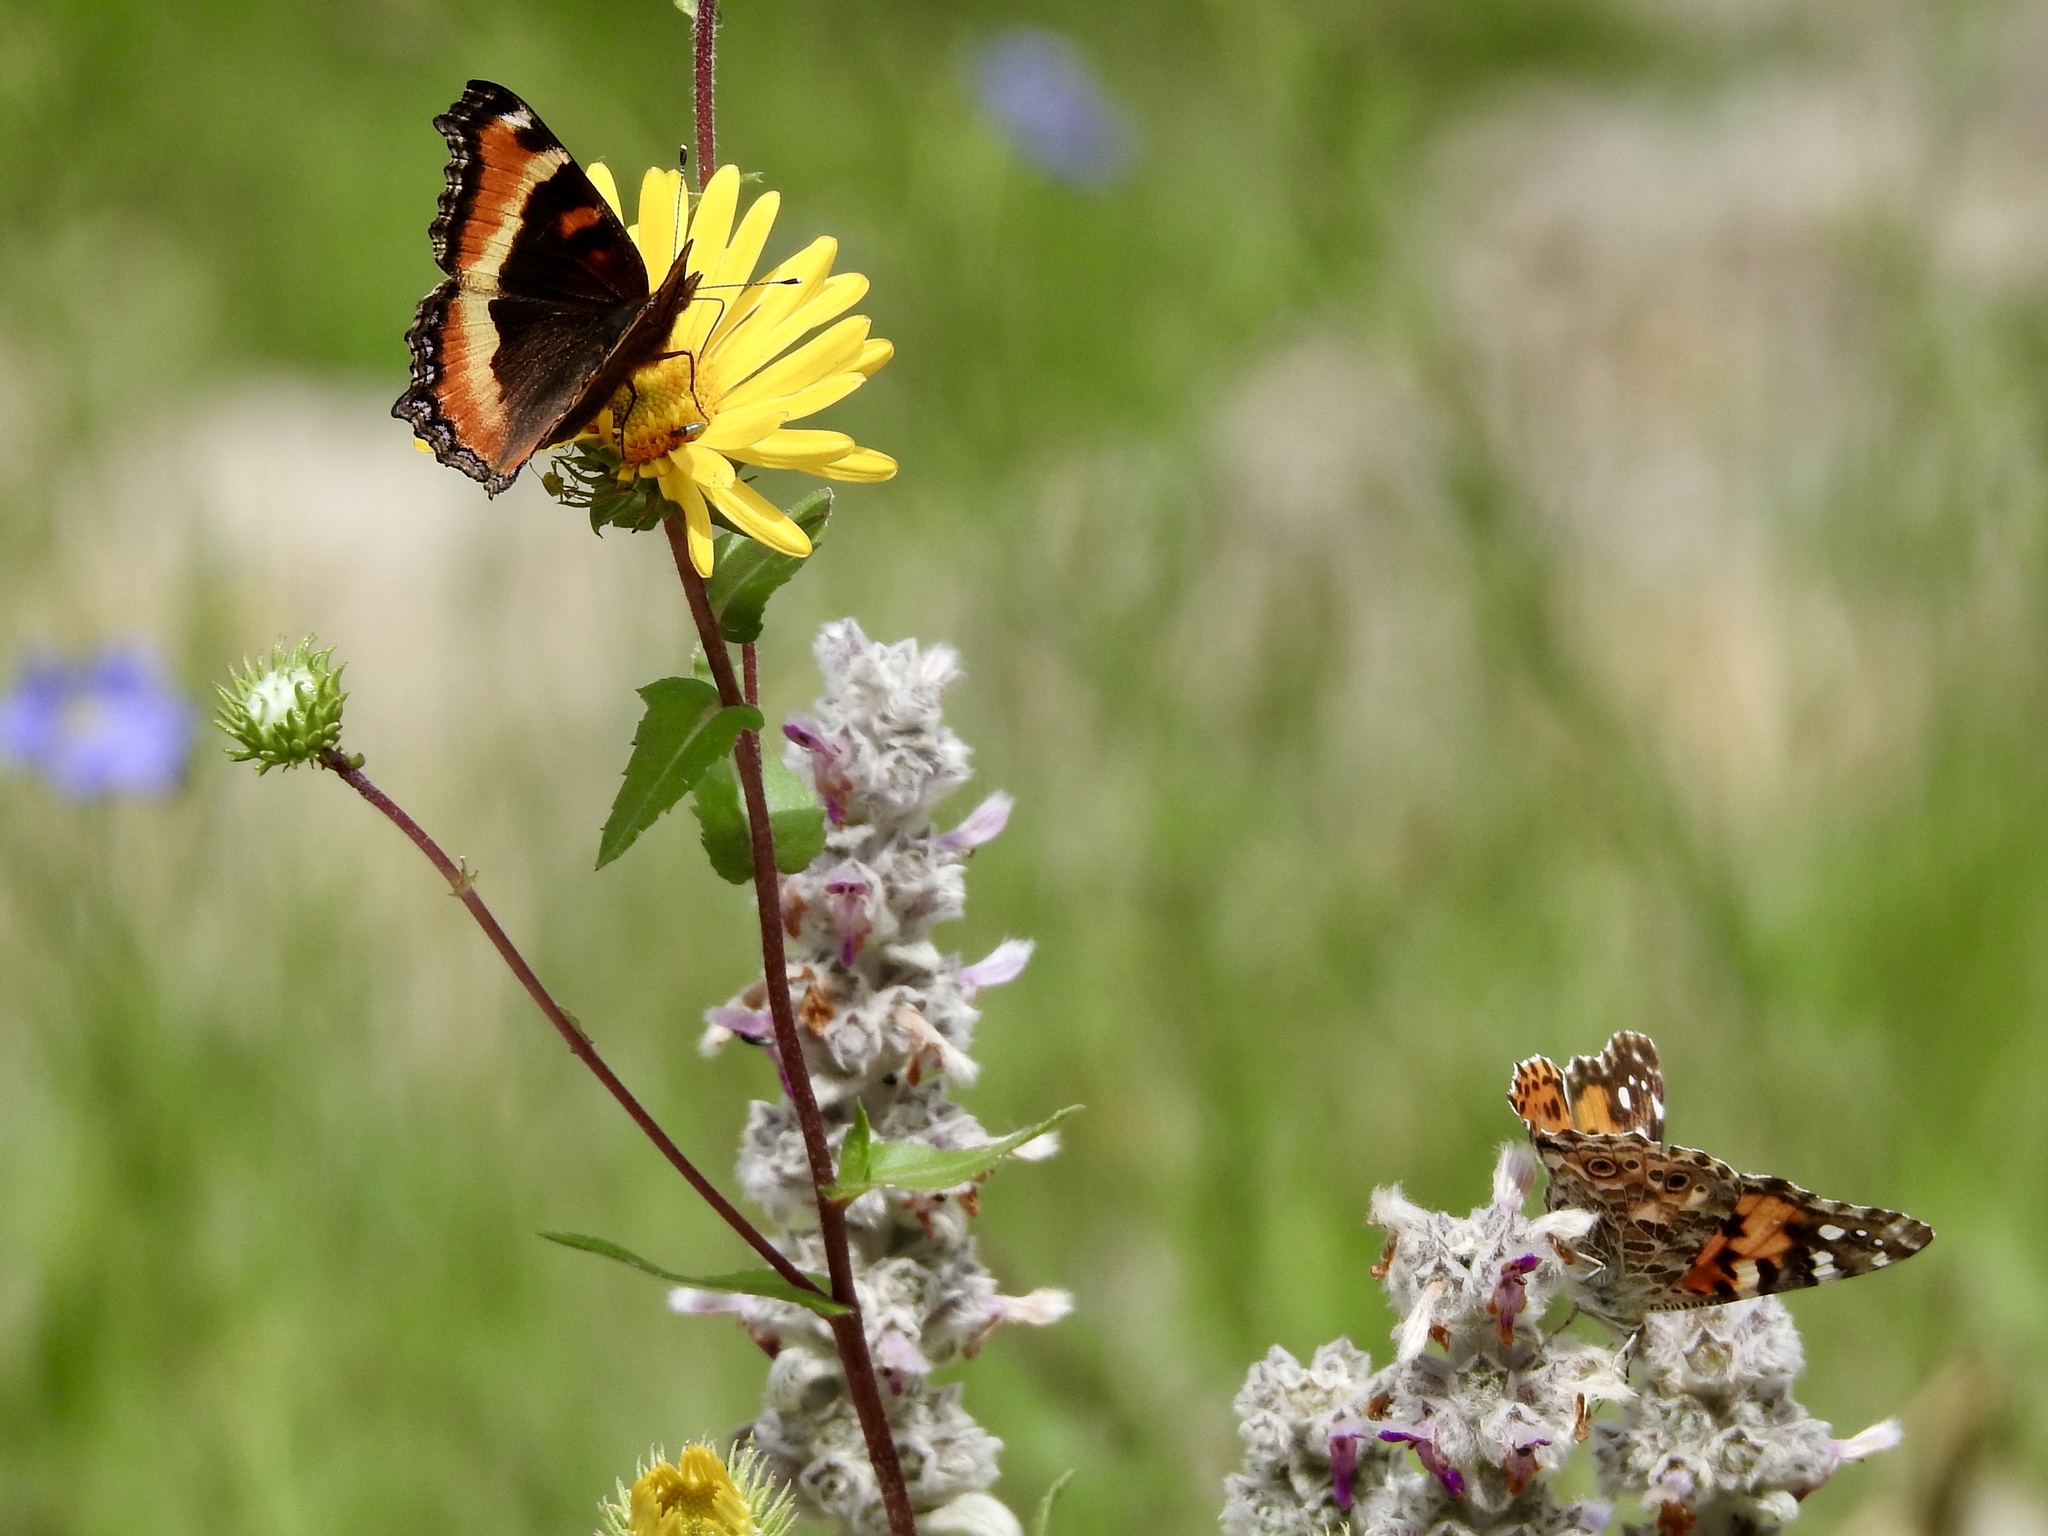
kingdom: Animalia
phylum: Arthropoda
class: Insecta
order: Lepidoptera
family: Nymphalidae
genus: Vanessa
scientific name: Vanessa cardui
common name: Painted lady
